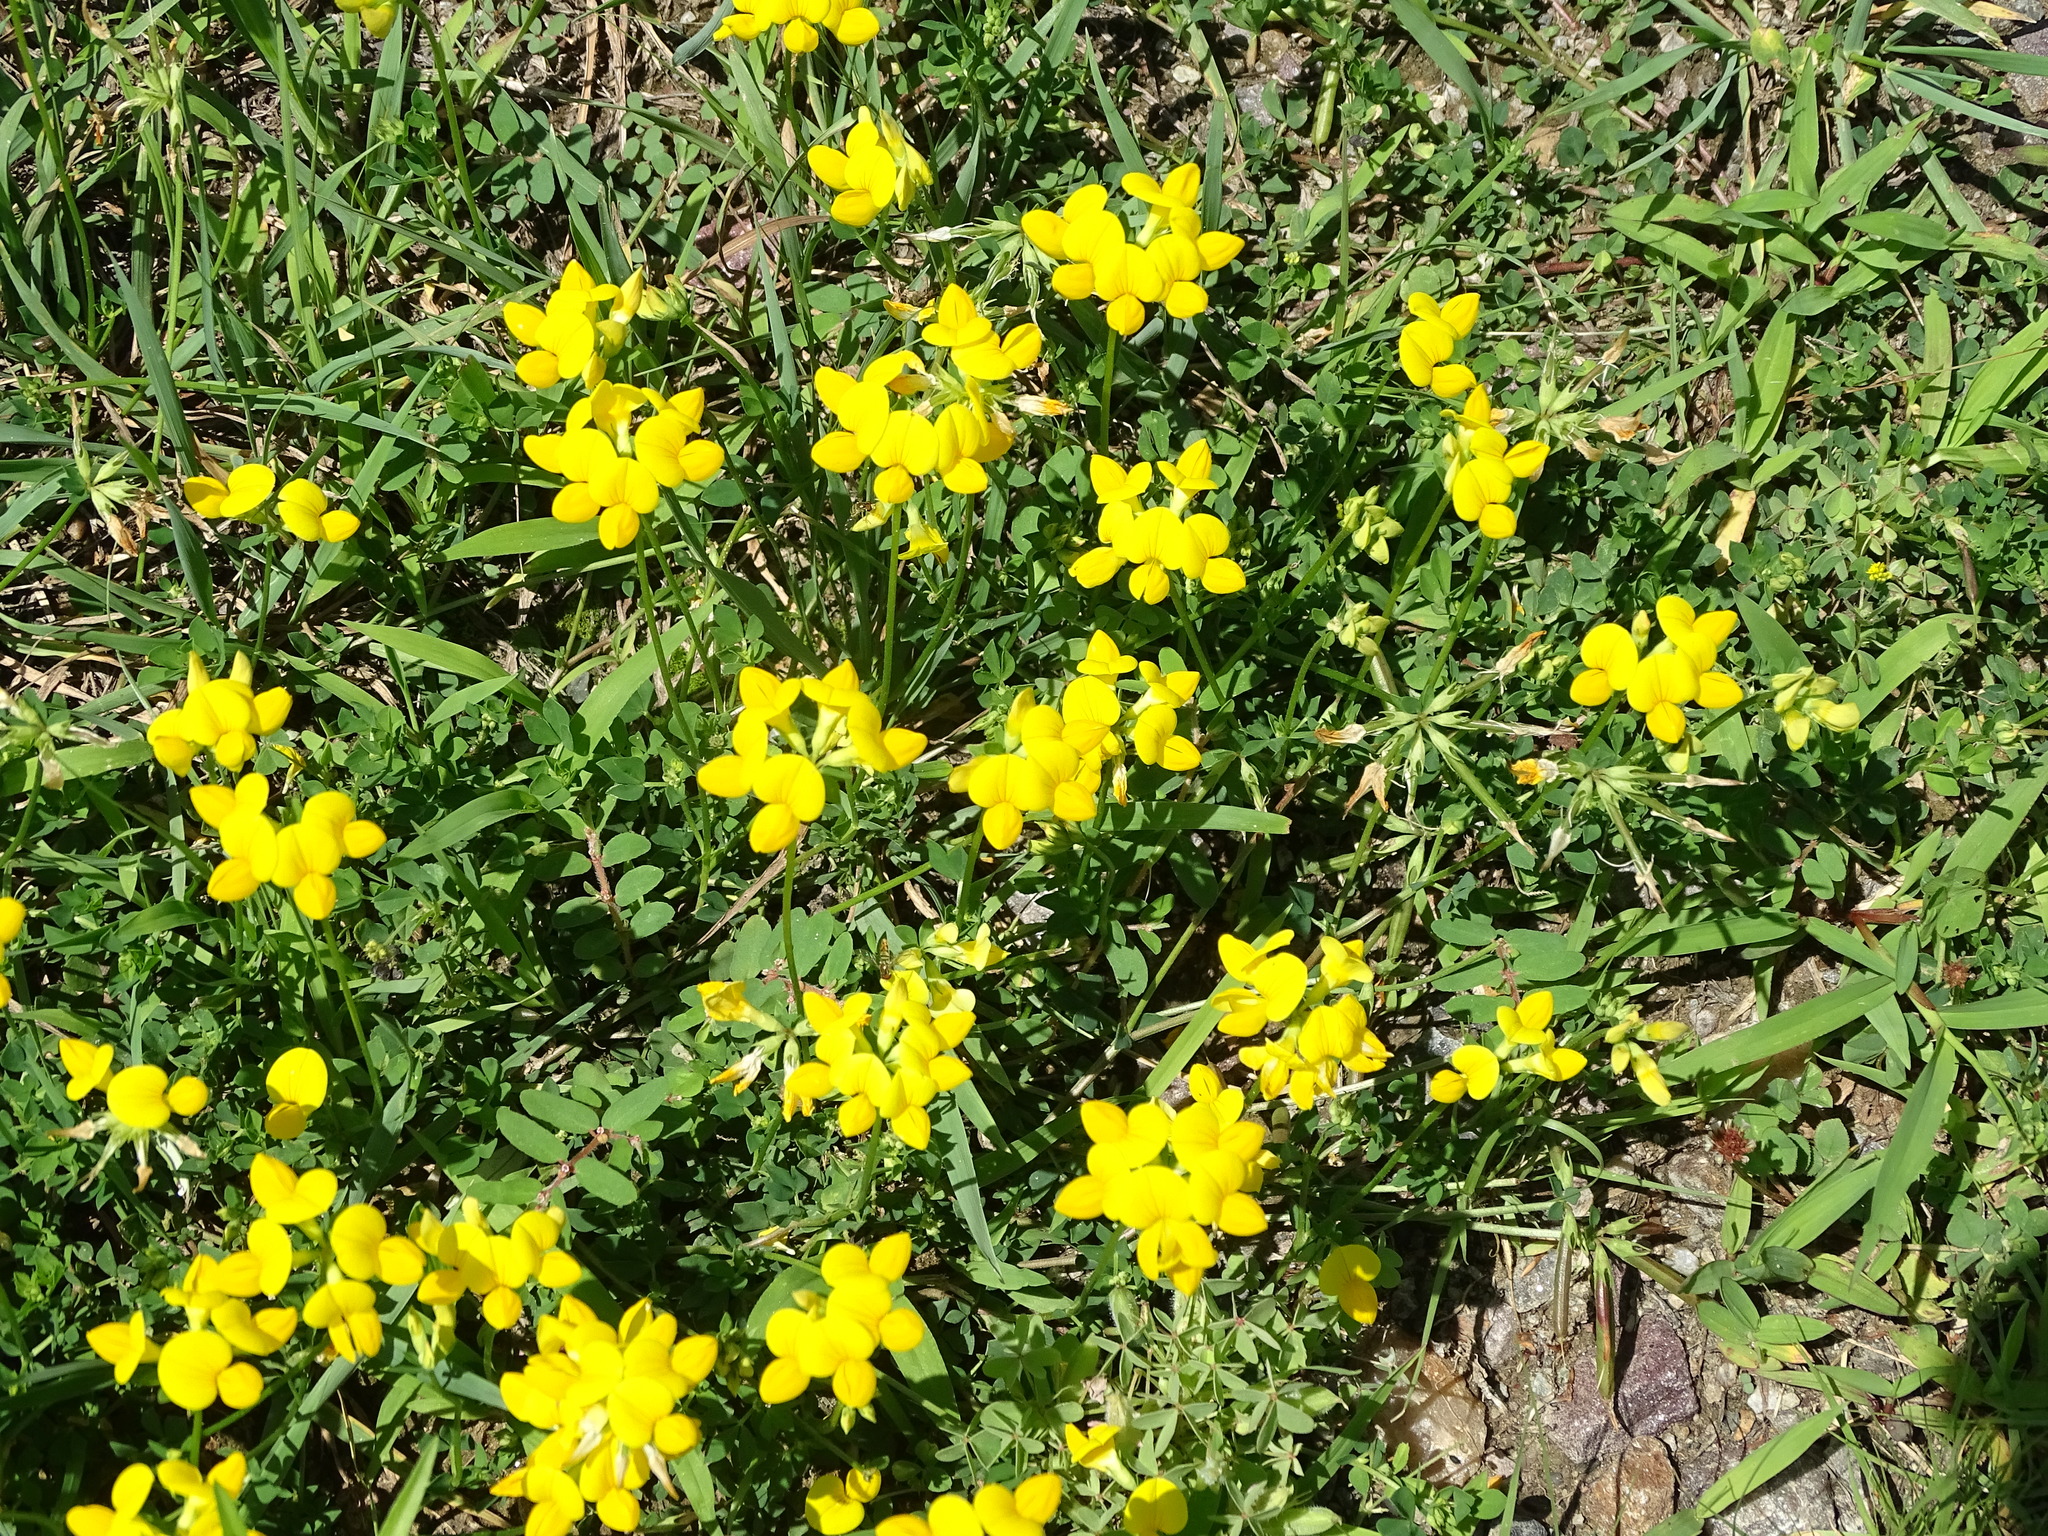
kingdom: Plantae
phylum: Tracheophyta
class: Magnoliopsida
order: Fabales
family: Fabaceae
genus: Lotus
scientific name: Lotus corniculatus
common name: Common bird's-foot-trefoil
